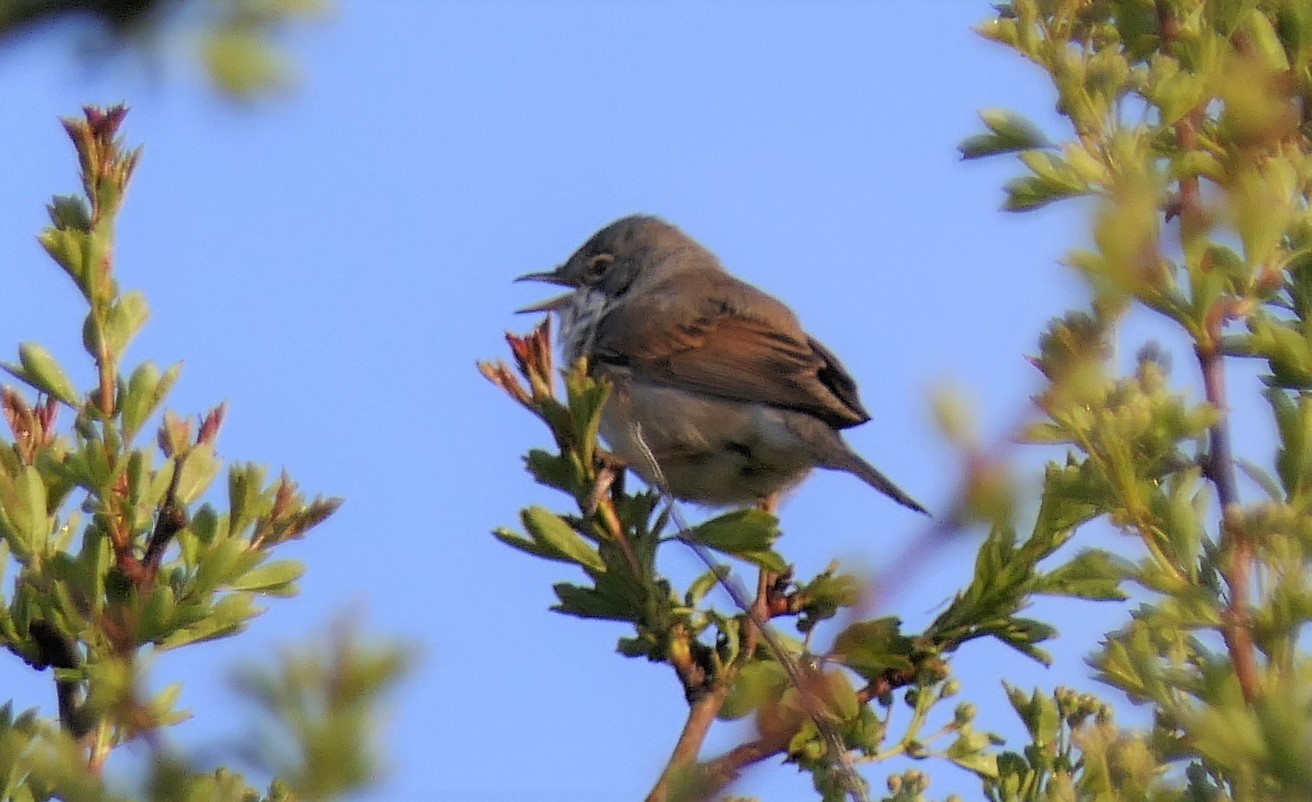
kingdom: Animalia
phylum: Chordata
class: Aves
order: Passeriformes
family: Sylviidae
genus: Sylvia
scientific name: Sylvia communis
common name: Common whitethroat
